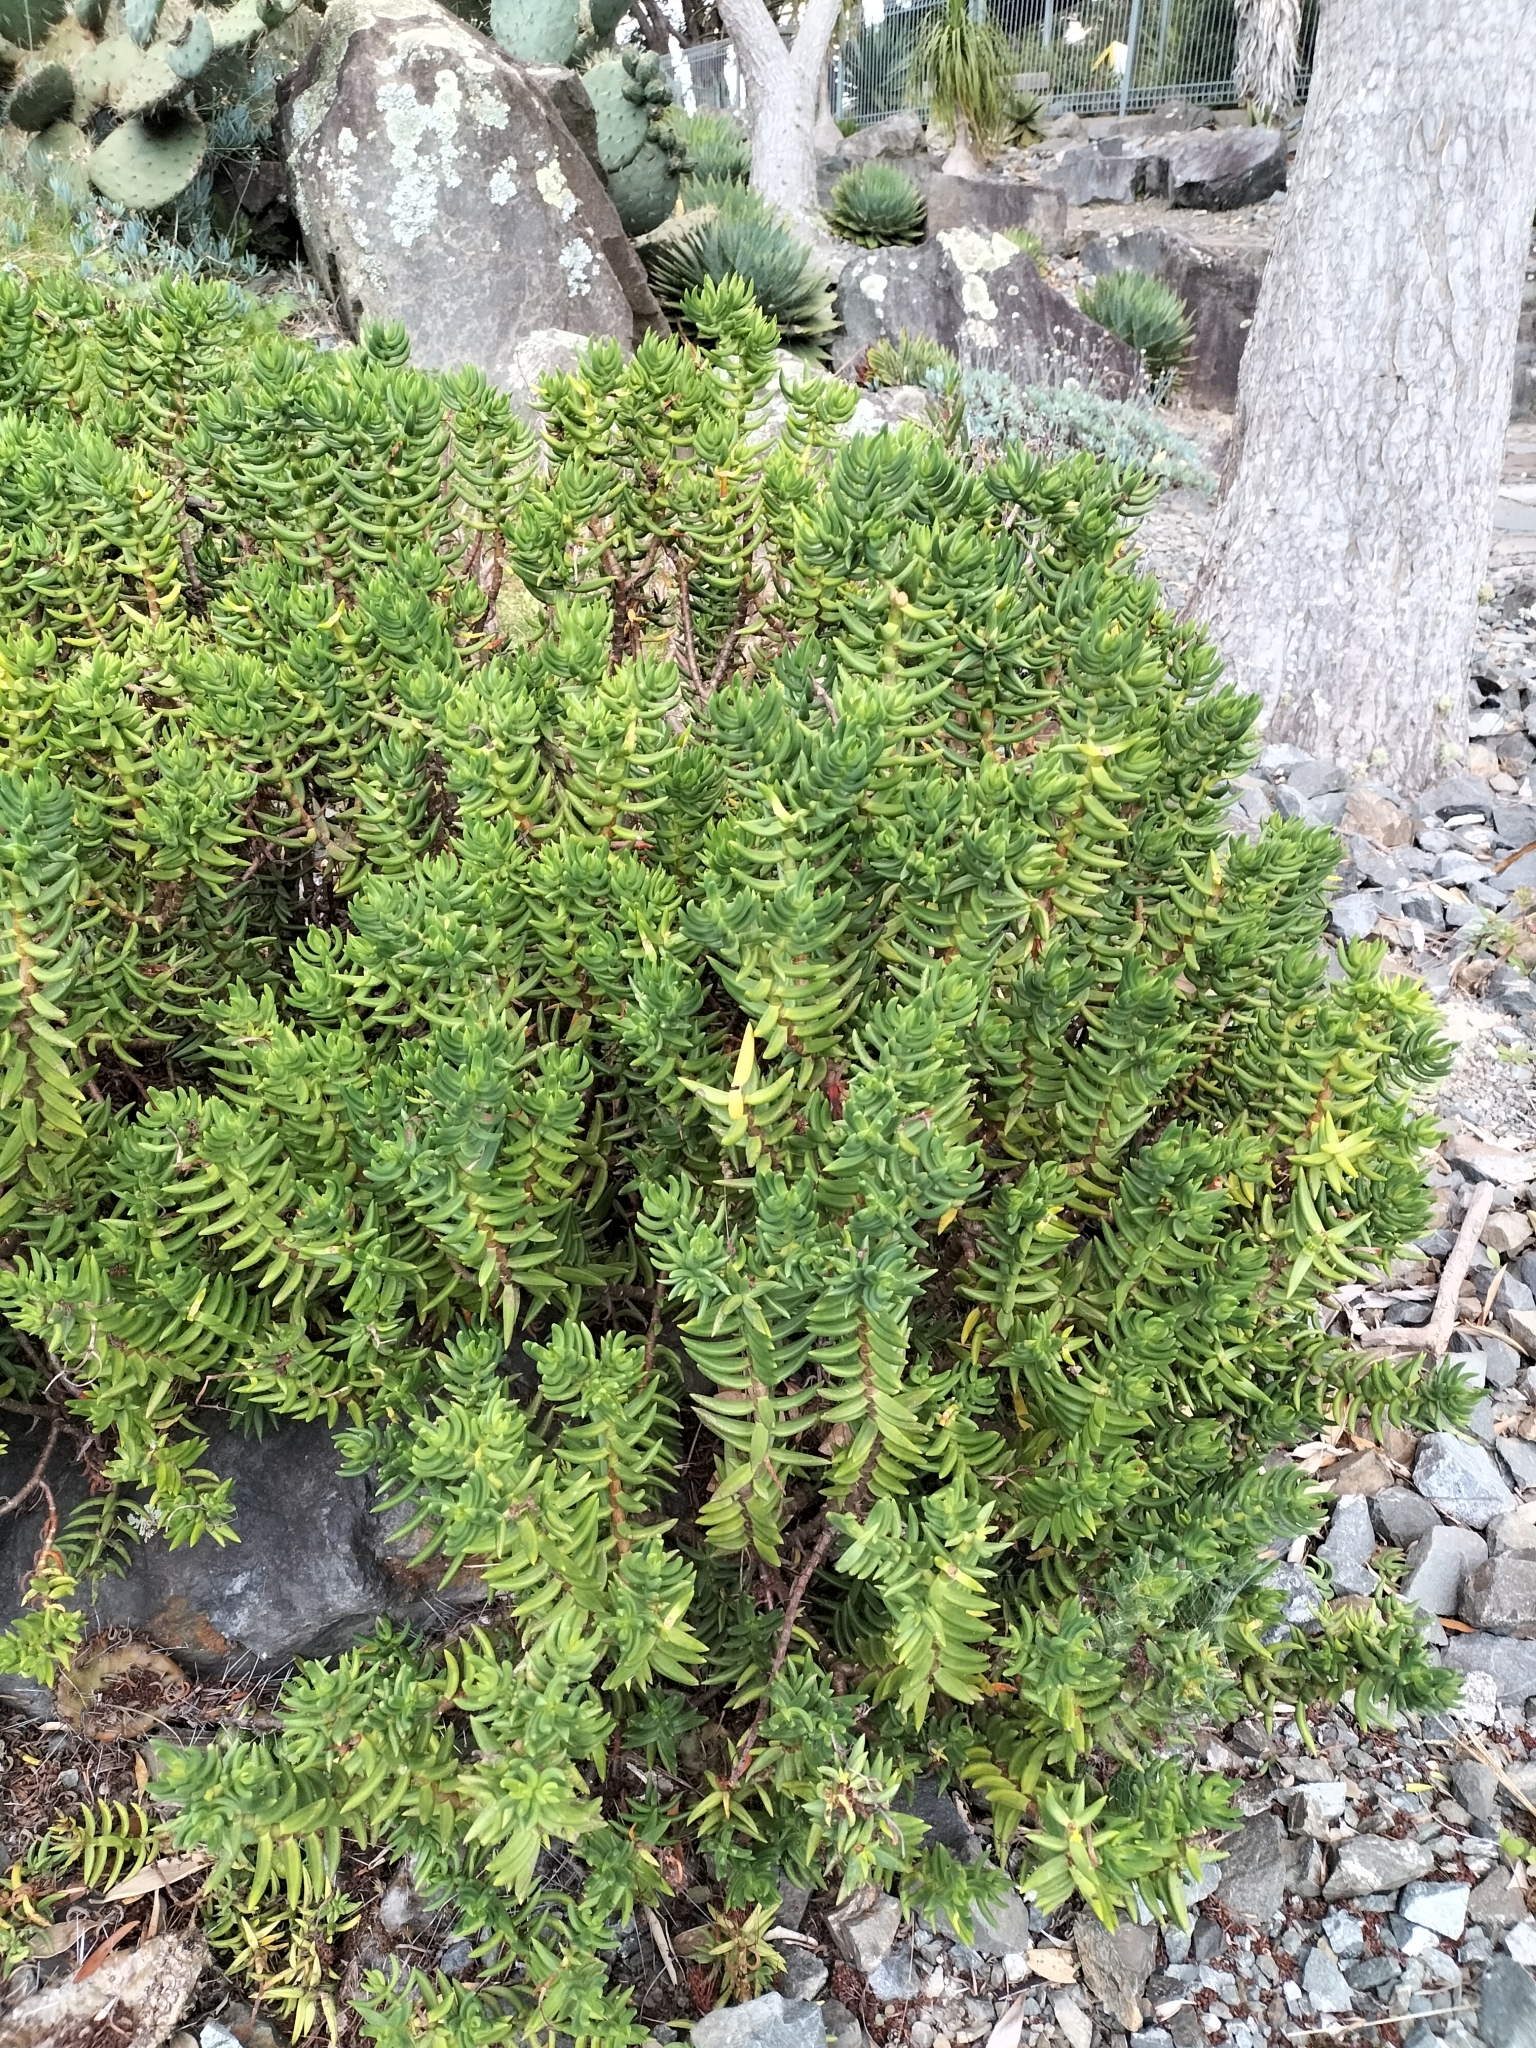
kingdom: Plantae
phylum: Tracheophyta
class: Magnoliopsida
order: Saxifragales
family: Crassulaceae
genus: Crassula
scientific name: Crassula tetragona
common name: Pygmyweed
